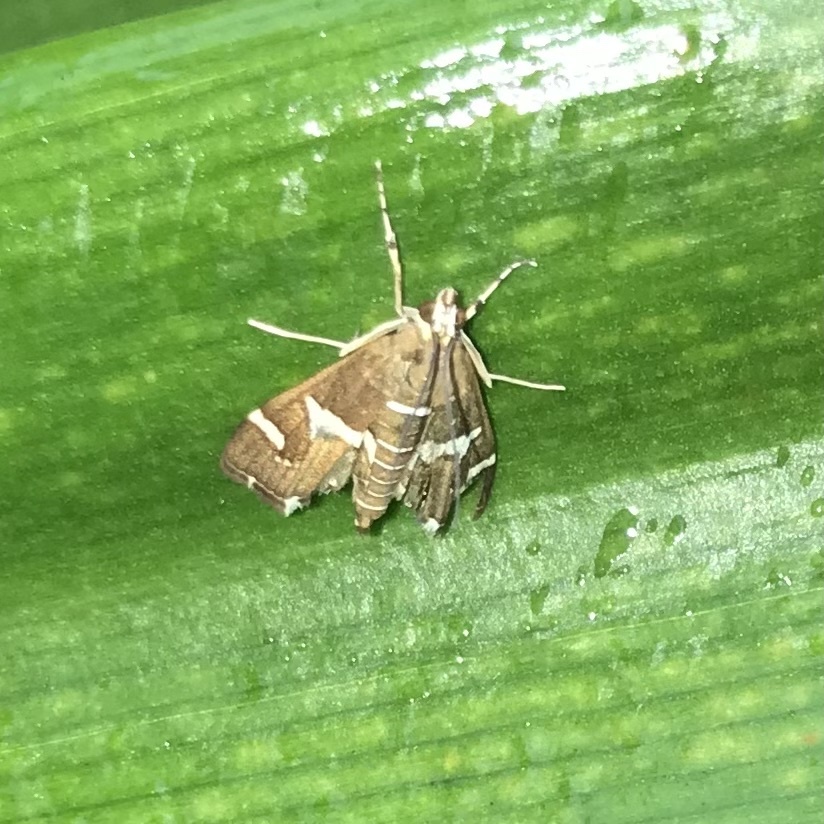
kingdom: Animalia
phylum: Arthropoda
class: Insecta
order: Lepidoptera
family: Crambidae
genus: Spoladea
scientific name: Spoladea recurvalis
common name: Beet webworm moth
